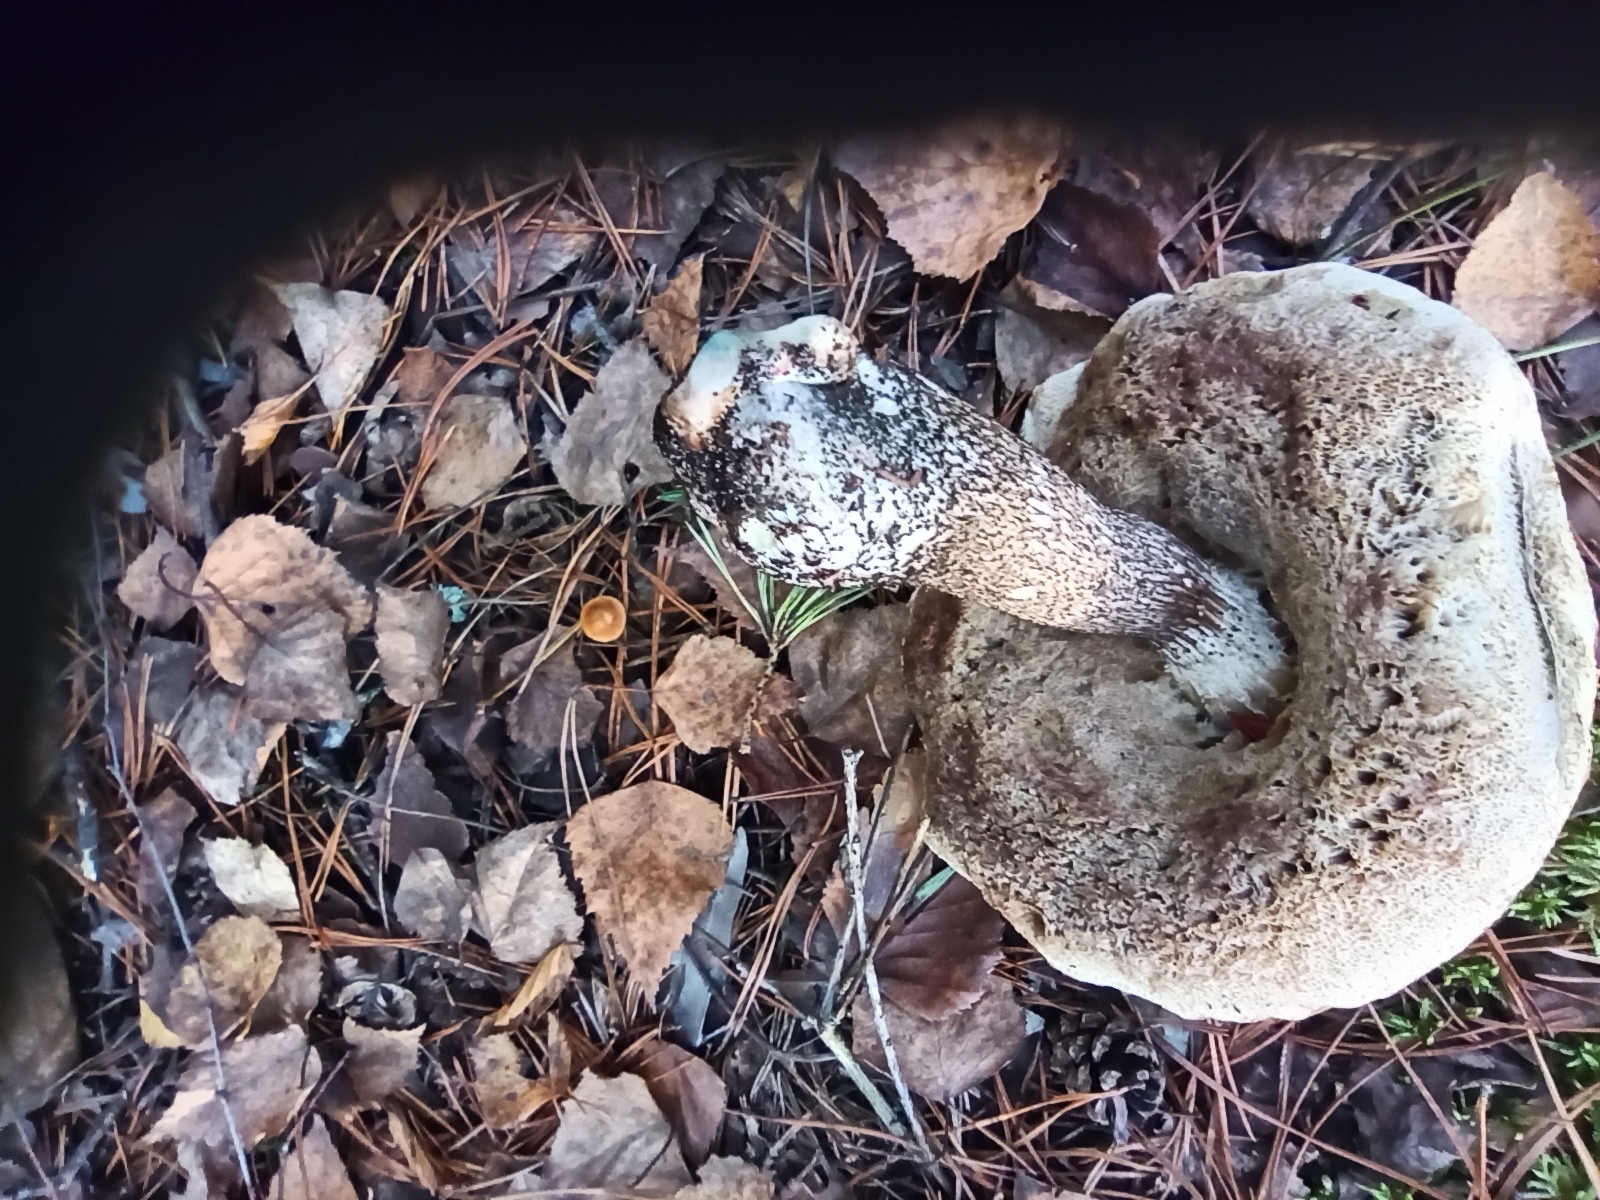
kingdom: Fungi
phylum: Basidiomycota
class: Agaricomycetes
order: Boletales
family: Boletaceae
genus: Leccinum
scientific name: Leccinum scabrum
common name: Blushing bolete
